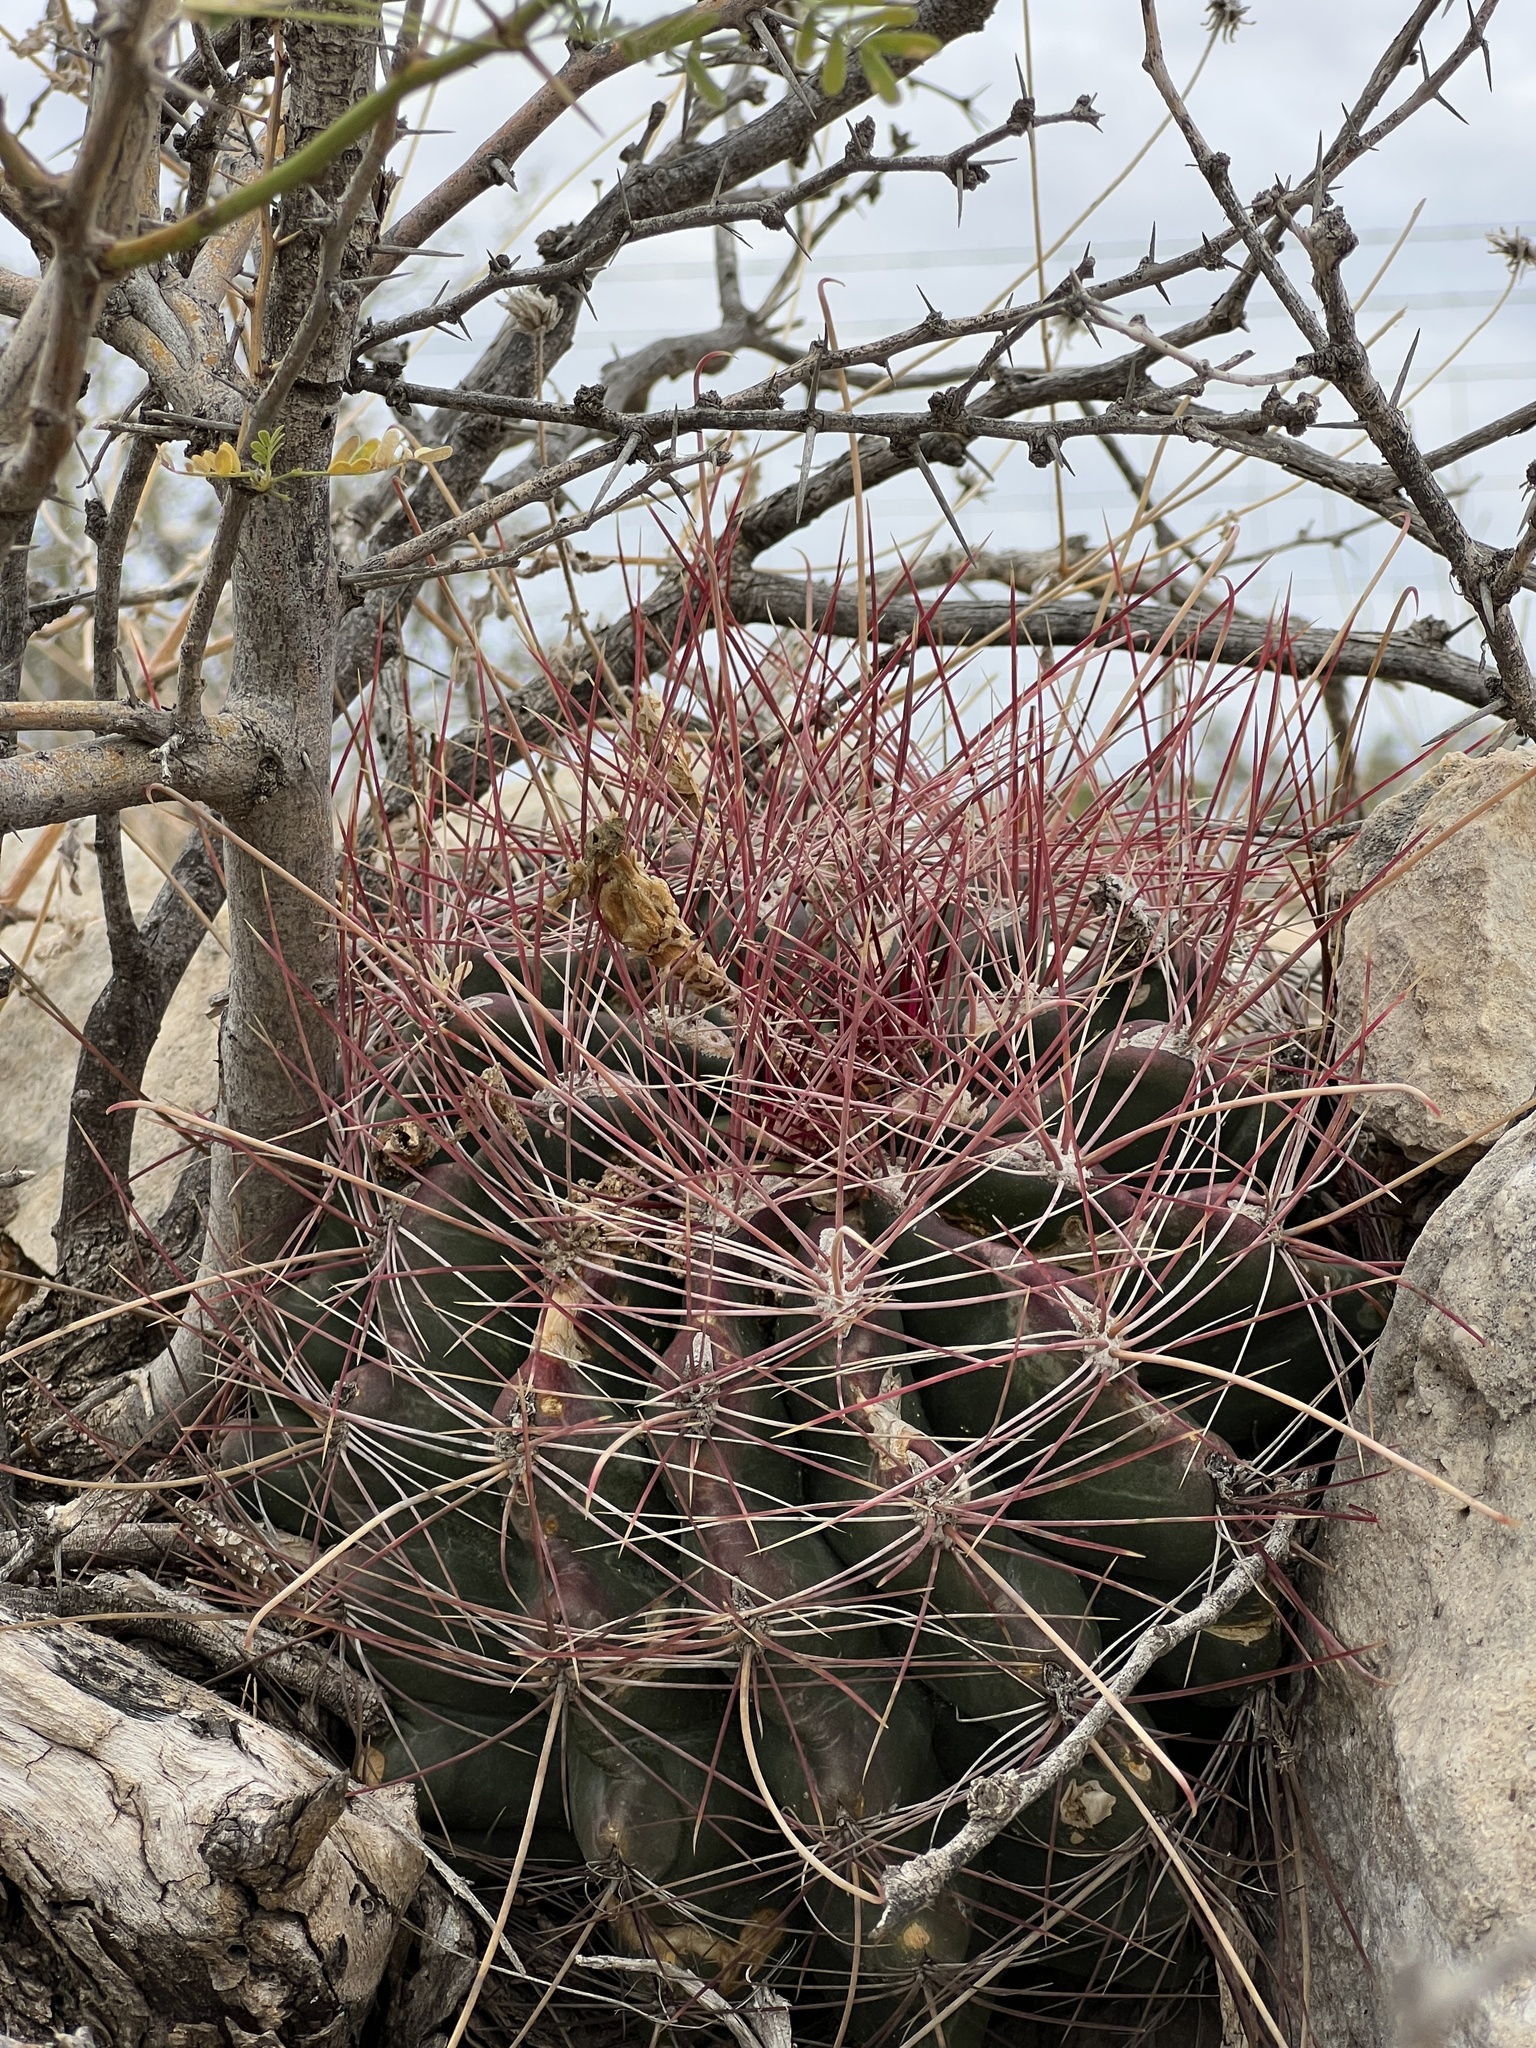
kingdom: Plantae
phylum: Tracheophyta
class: Magnoliopsida
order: Caryophyllales
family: Cactaceae
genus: Bisnaga
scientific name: Bisnaga hamatacantha
